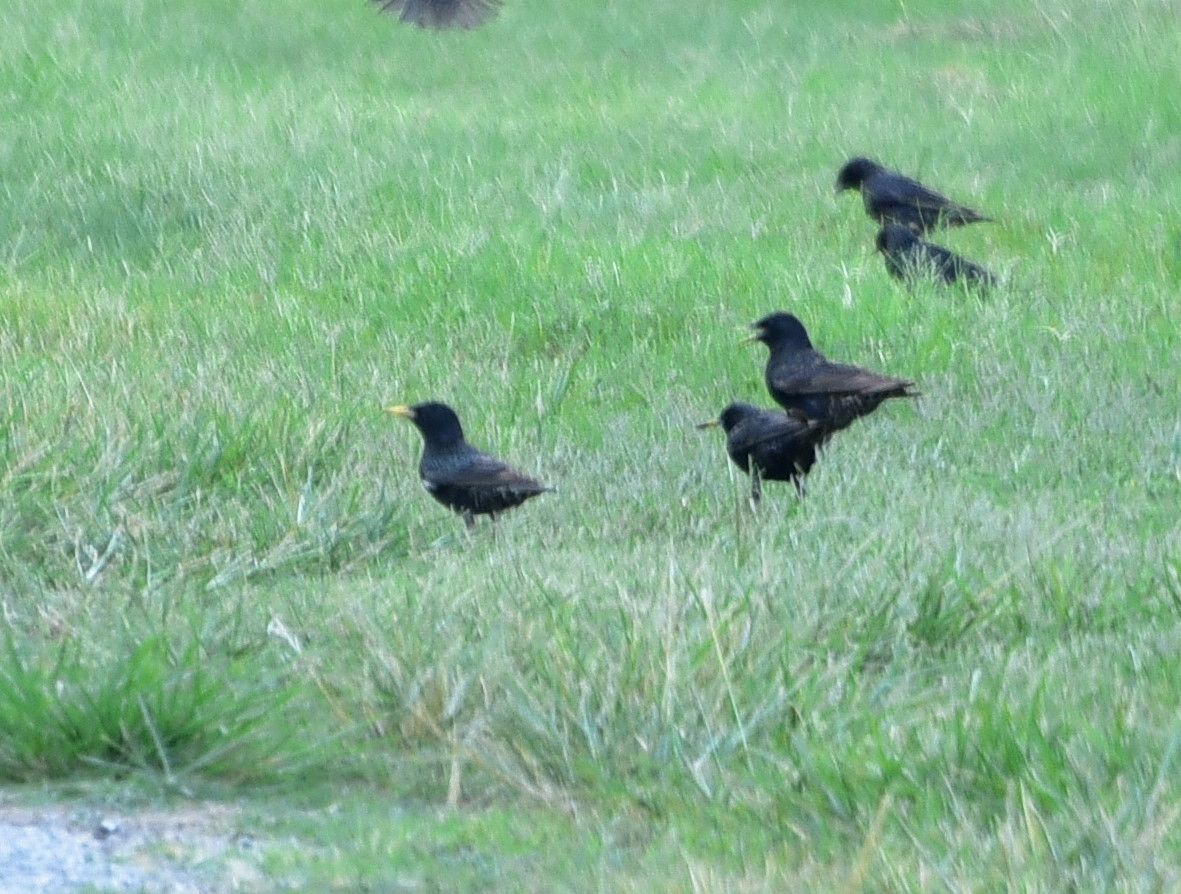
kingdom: Animalia
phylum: Chordata
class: Aves
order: Passeriformes
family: Sturnidae
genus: Sturnus
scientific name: Sturnus vulgaris
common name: Common starling
